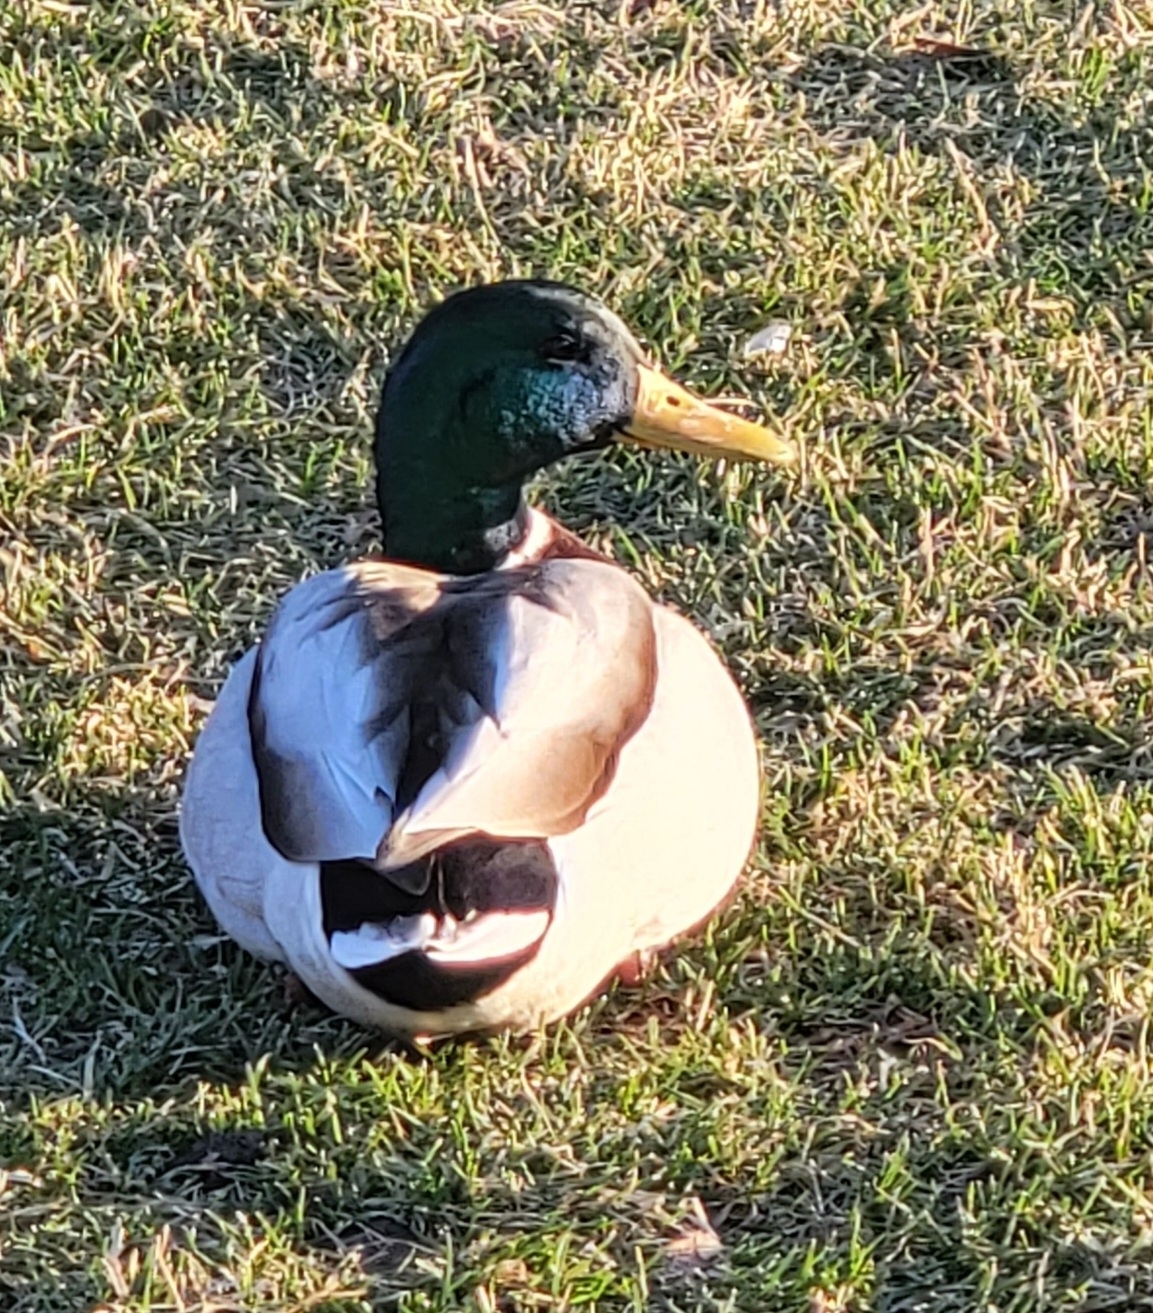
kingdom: Animalia
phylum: Chordata
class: Aves
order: Anseriformes
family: Anatidae
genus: Anas
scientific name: Anas platyrhynchos
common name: Mallard
